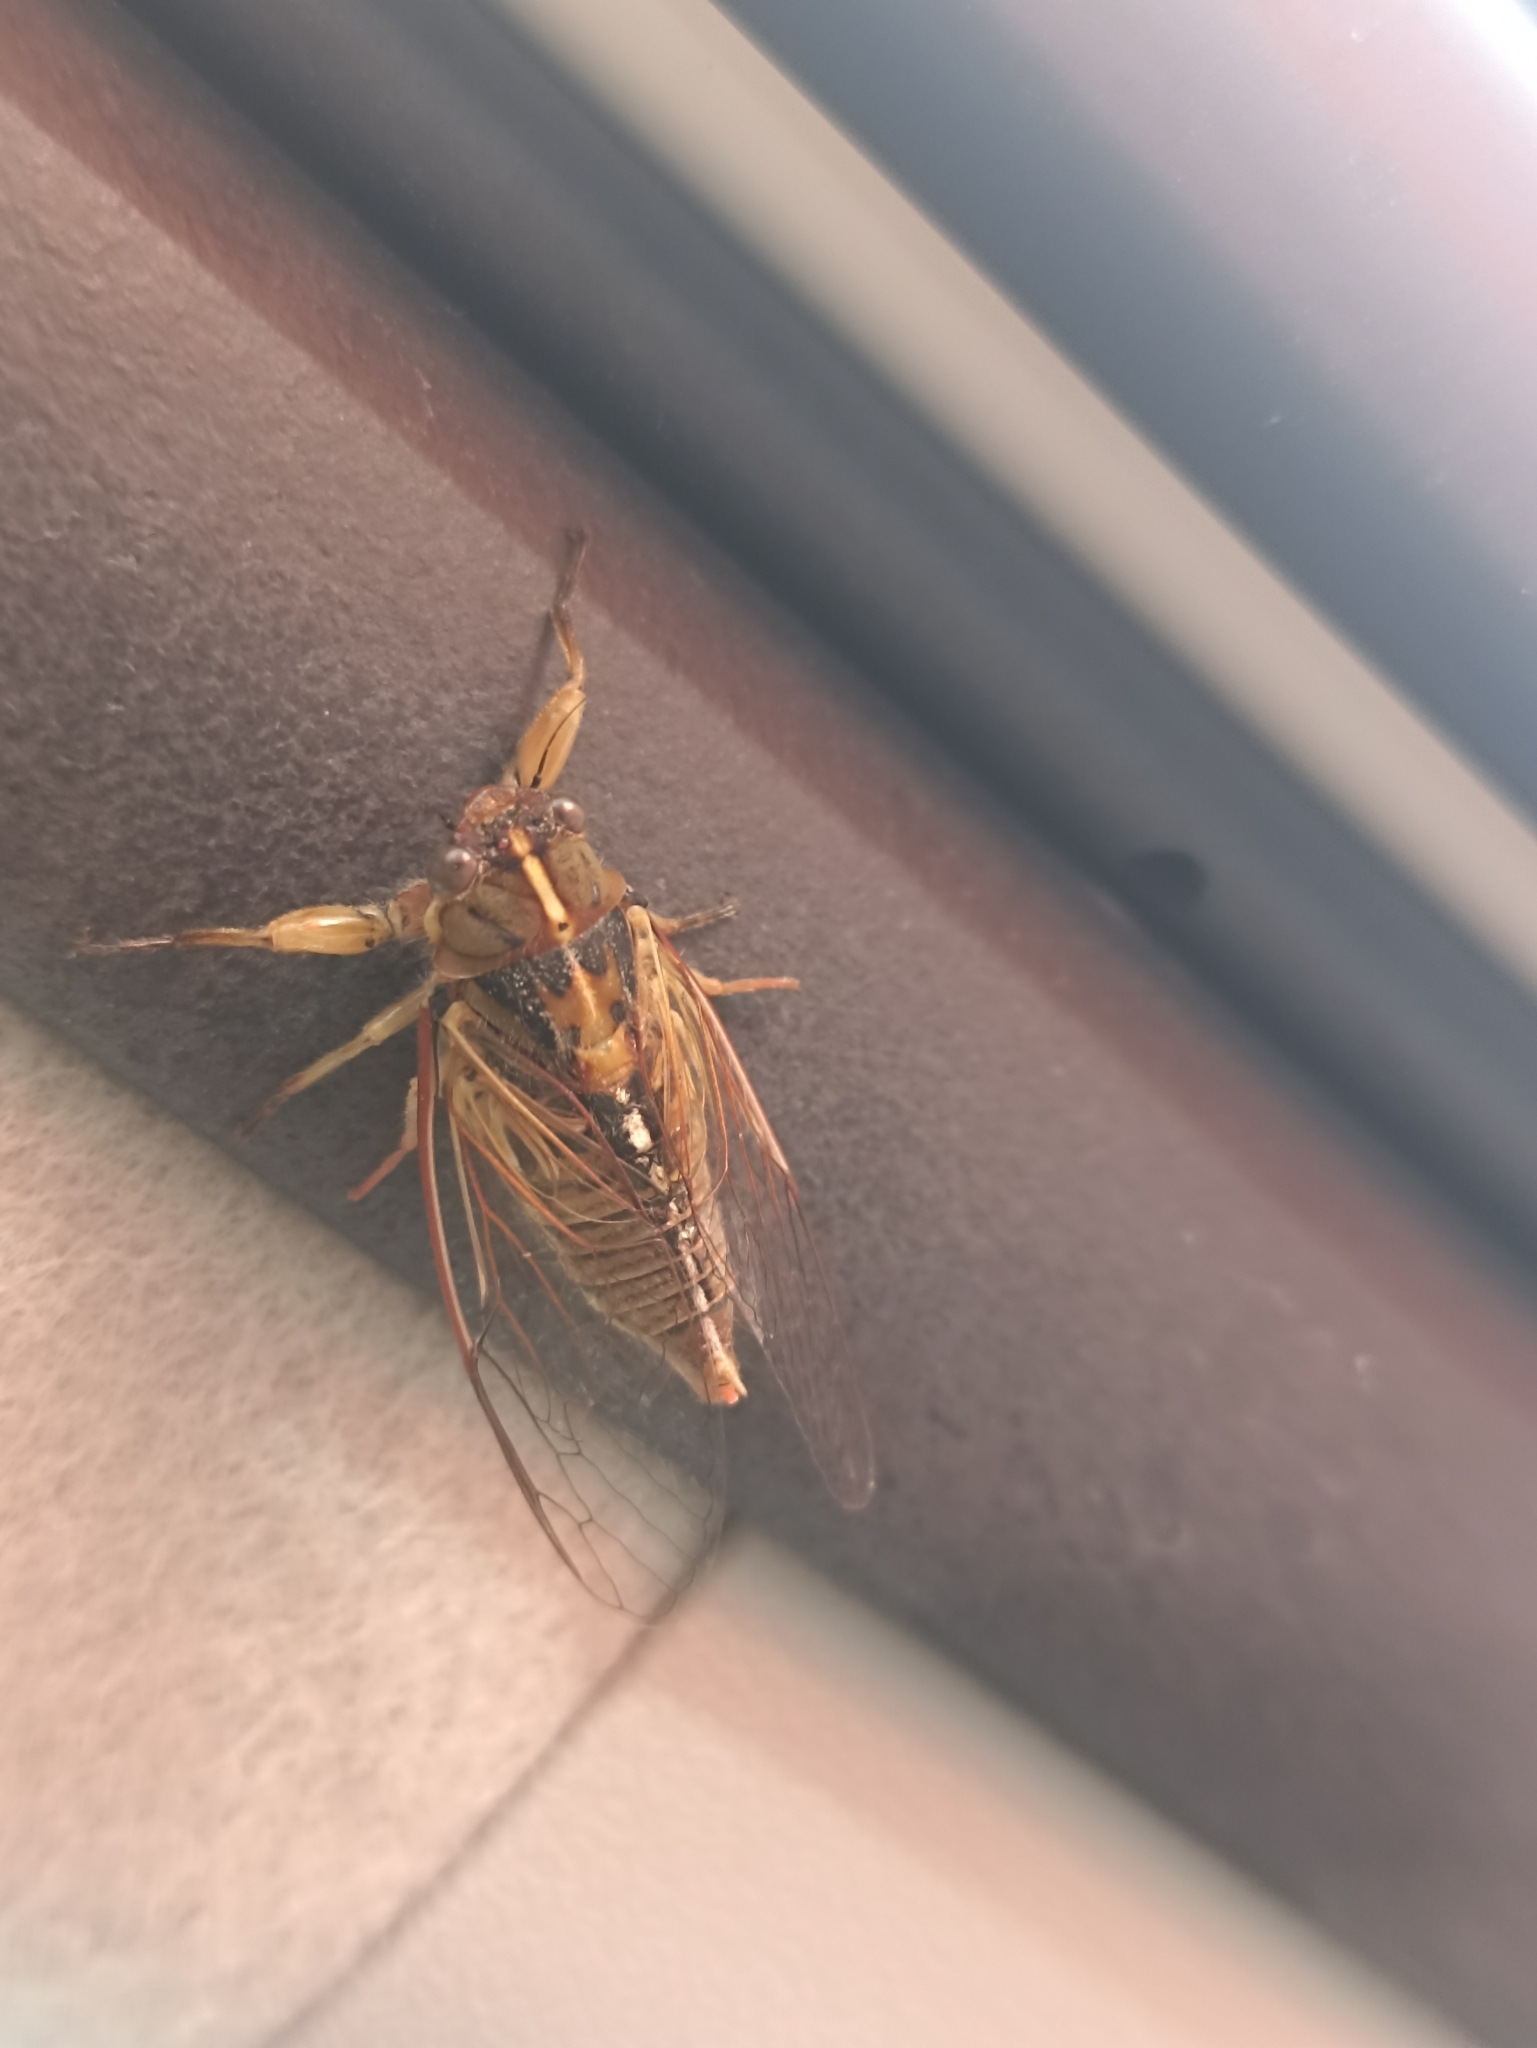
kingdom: Animalia
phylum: Arthropoda
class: Insecta
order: Hemiptera
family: Cicadidae
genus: Kikihia
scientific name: Kikihia muta
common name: Variable cicada
